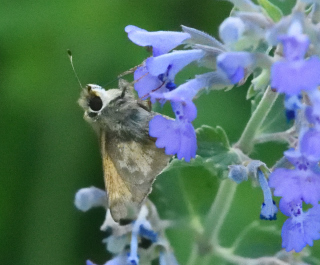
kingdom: Animalia
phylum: Arthropoda
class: Insecta
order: Lepidoptera
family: Hesperiidae
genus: Atalopedes
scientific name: Atalopedes
